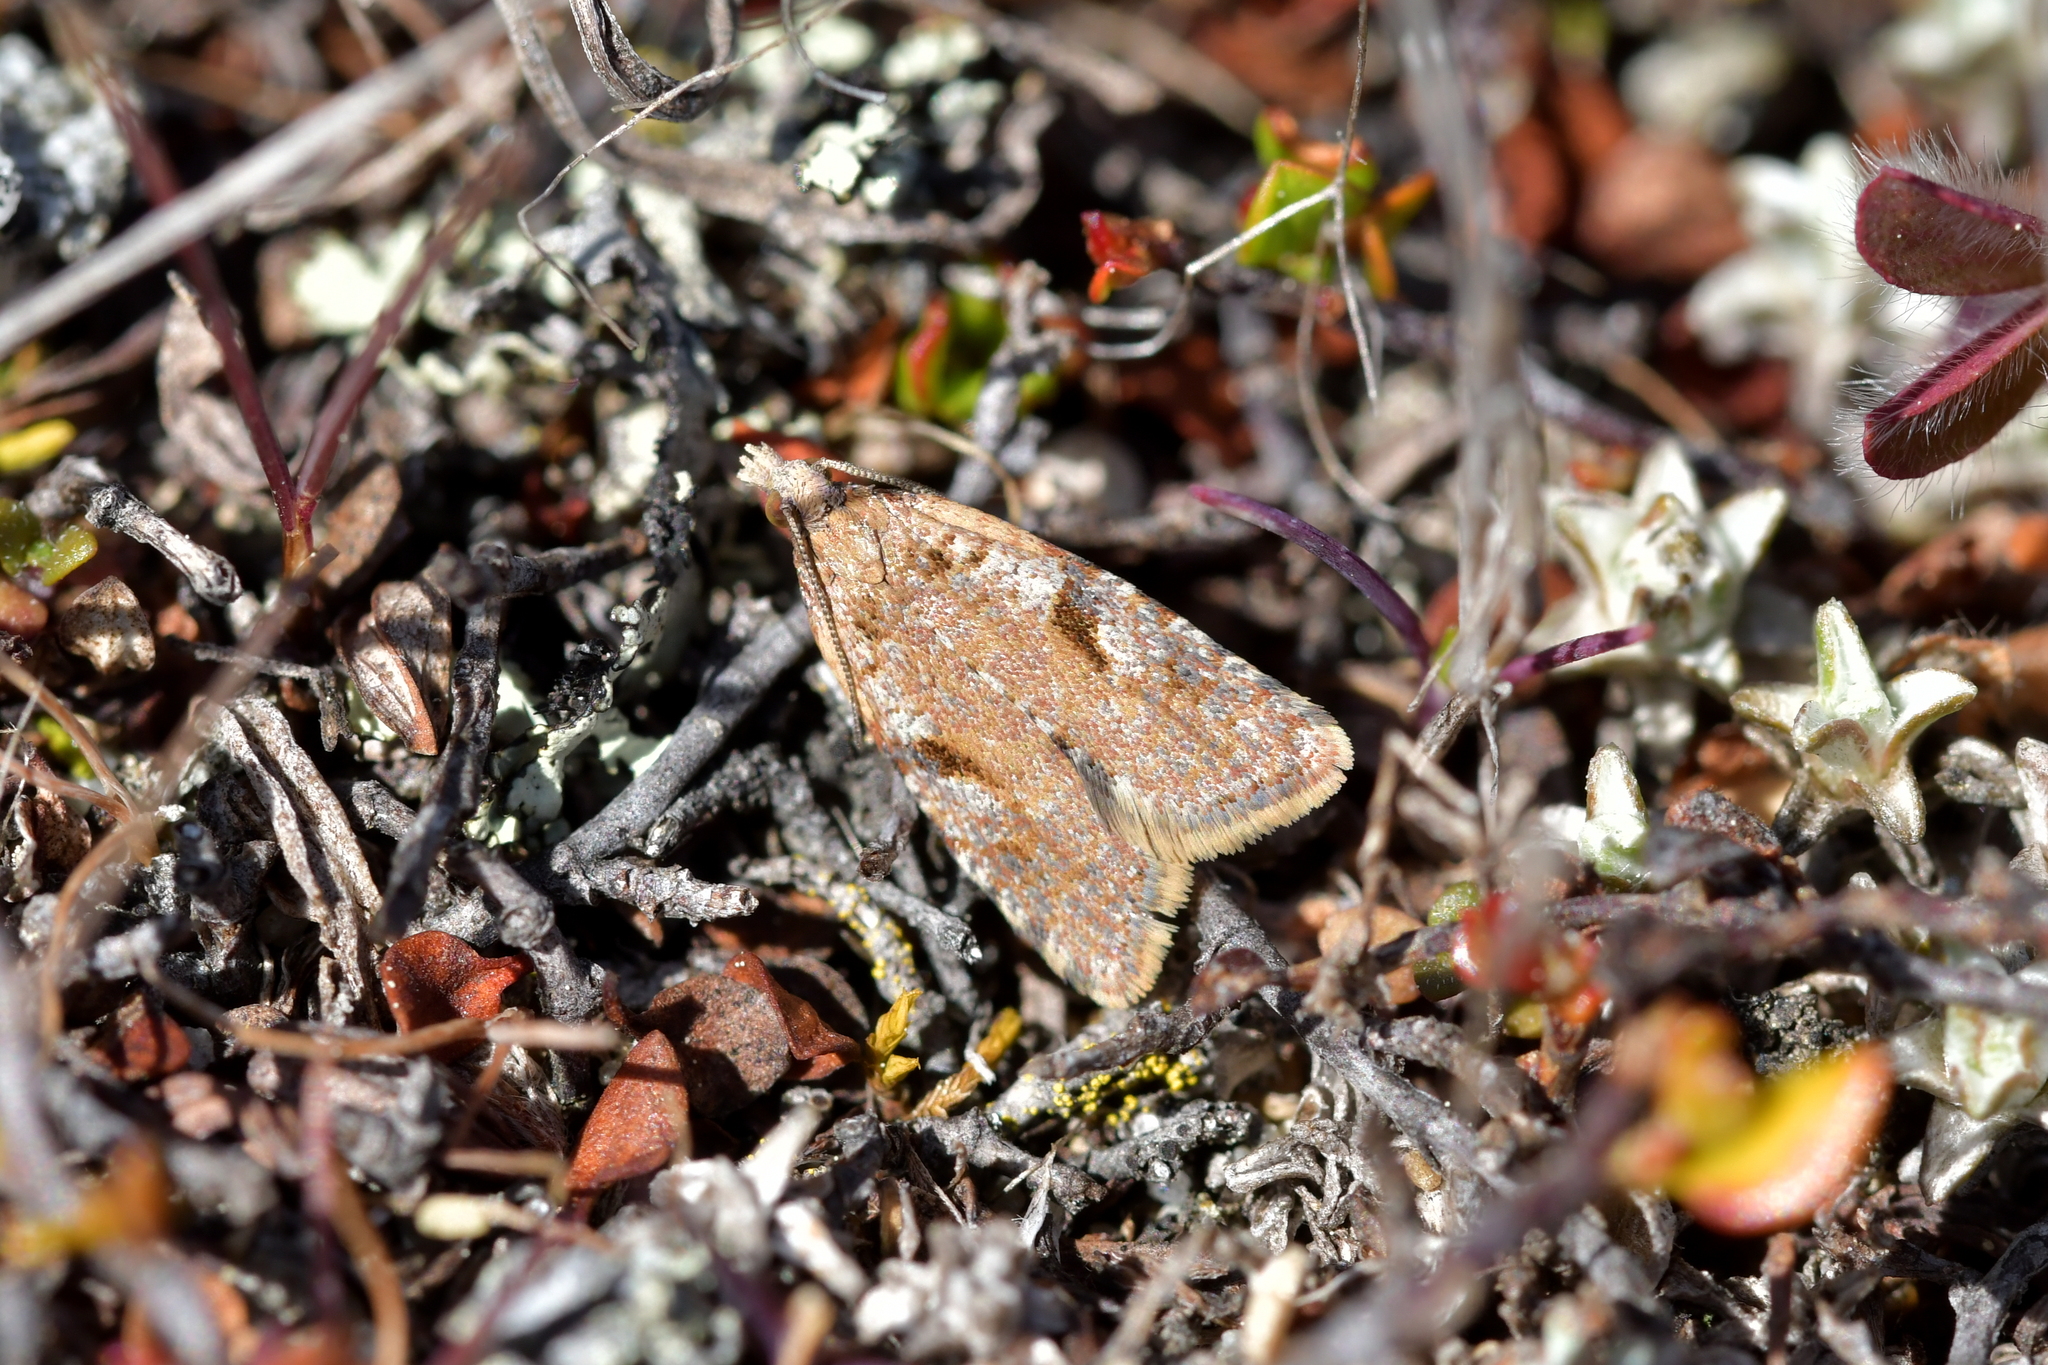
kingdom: Animalia
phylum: Arthropoda
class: Insecta
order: Lepidoptera
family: Tortricidae
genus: Capua
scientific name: Capua semiferana
